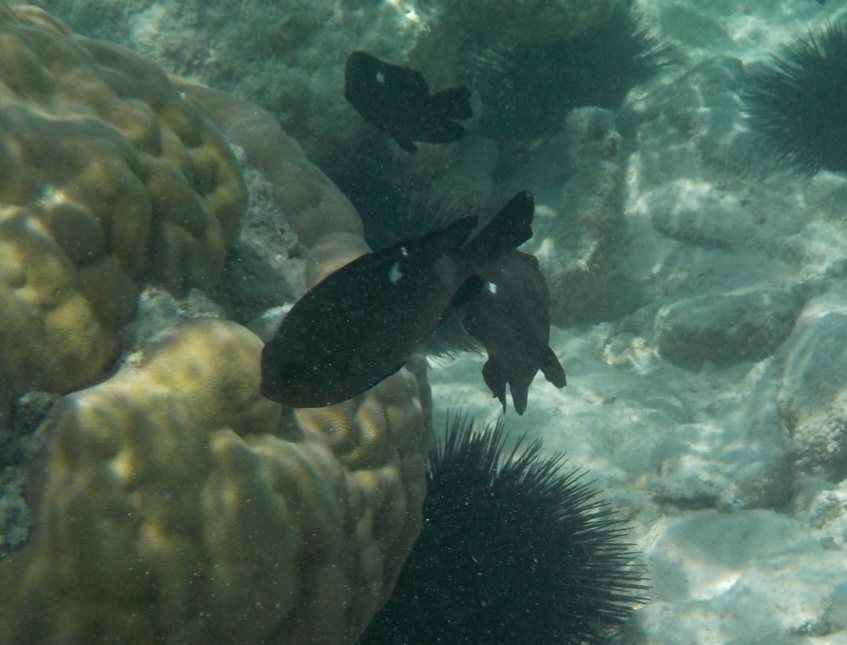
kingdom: Animalia
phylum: Chordata
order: Perciformes
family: Pomacentridae
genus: Dascyllus
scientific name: Dascyllus trimaculatus
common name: Threespot dascyllus
